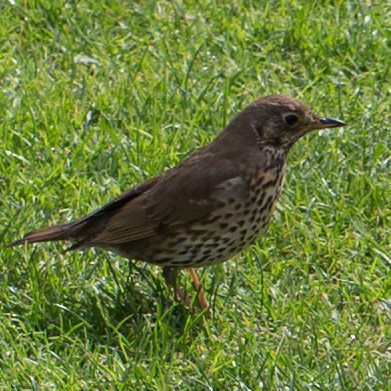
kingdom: Animalia
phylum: Chordata
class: Aves
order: Passeriformes
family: Turdidae
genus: Turdus
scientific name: Turdus philomelos
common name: Song thrush
